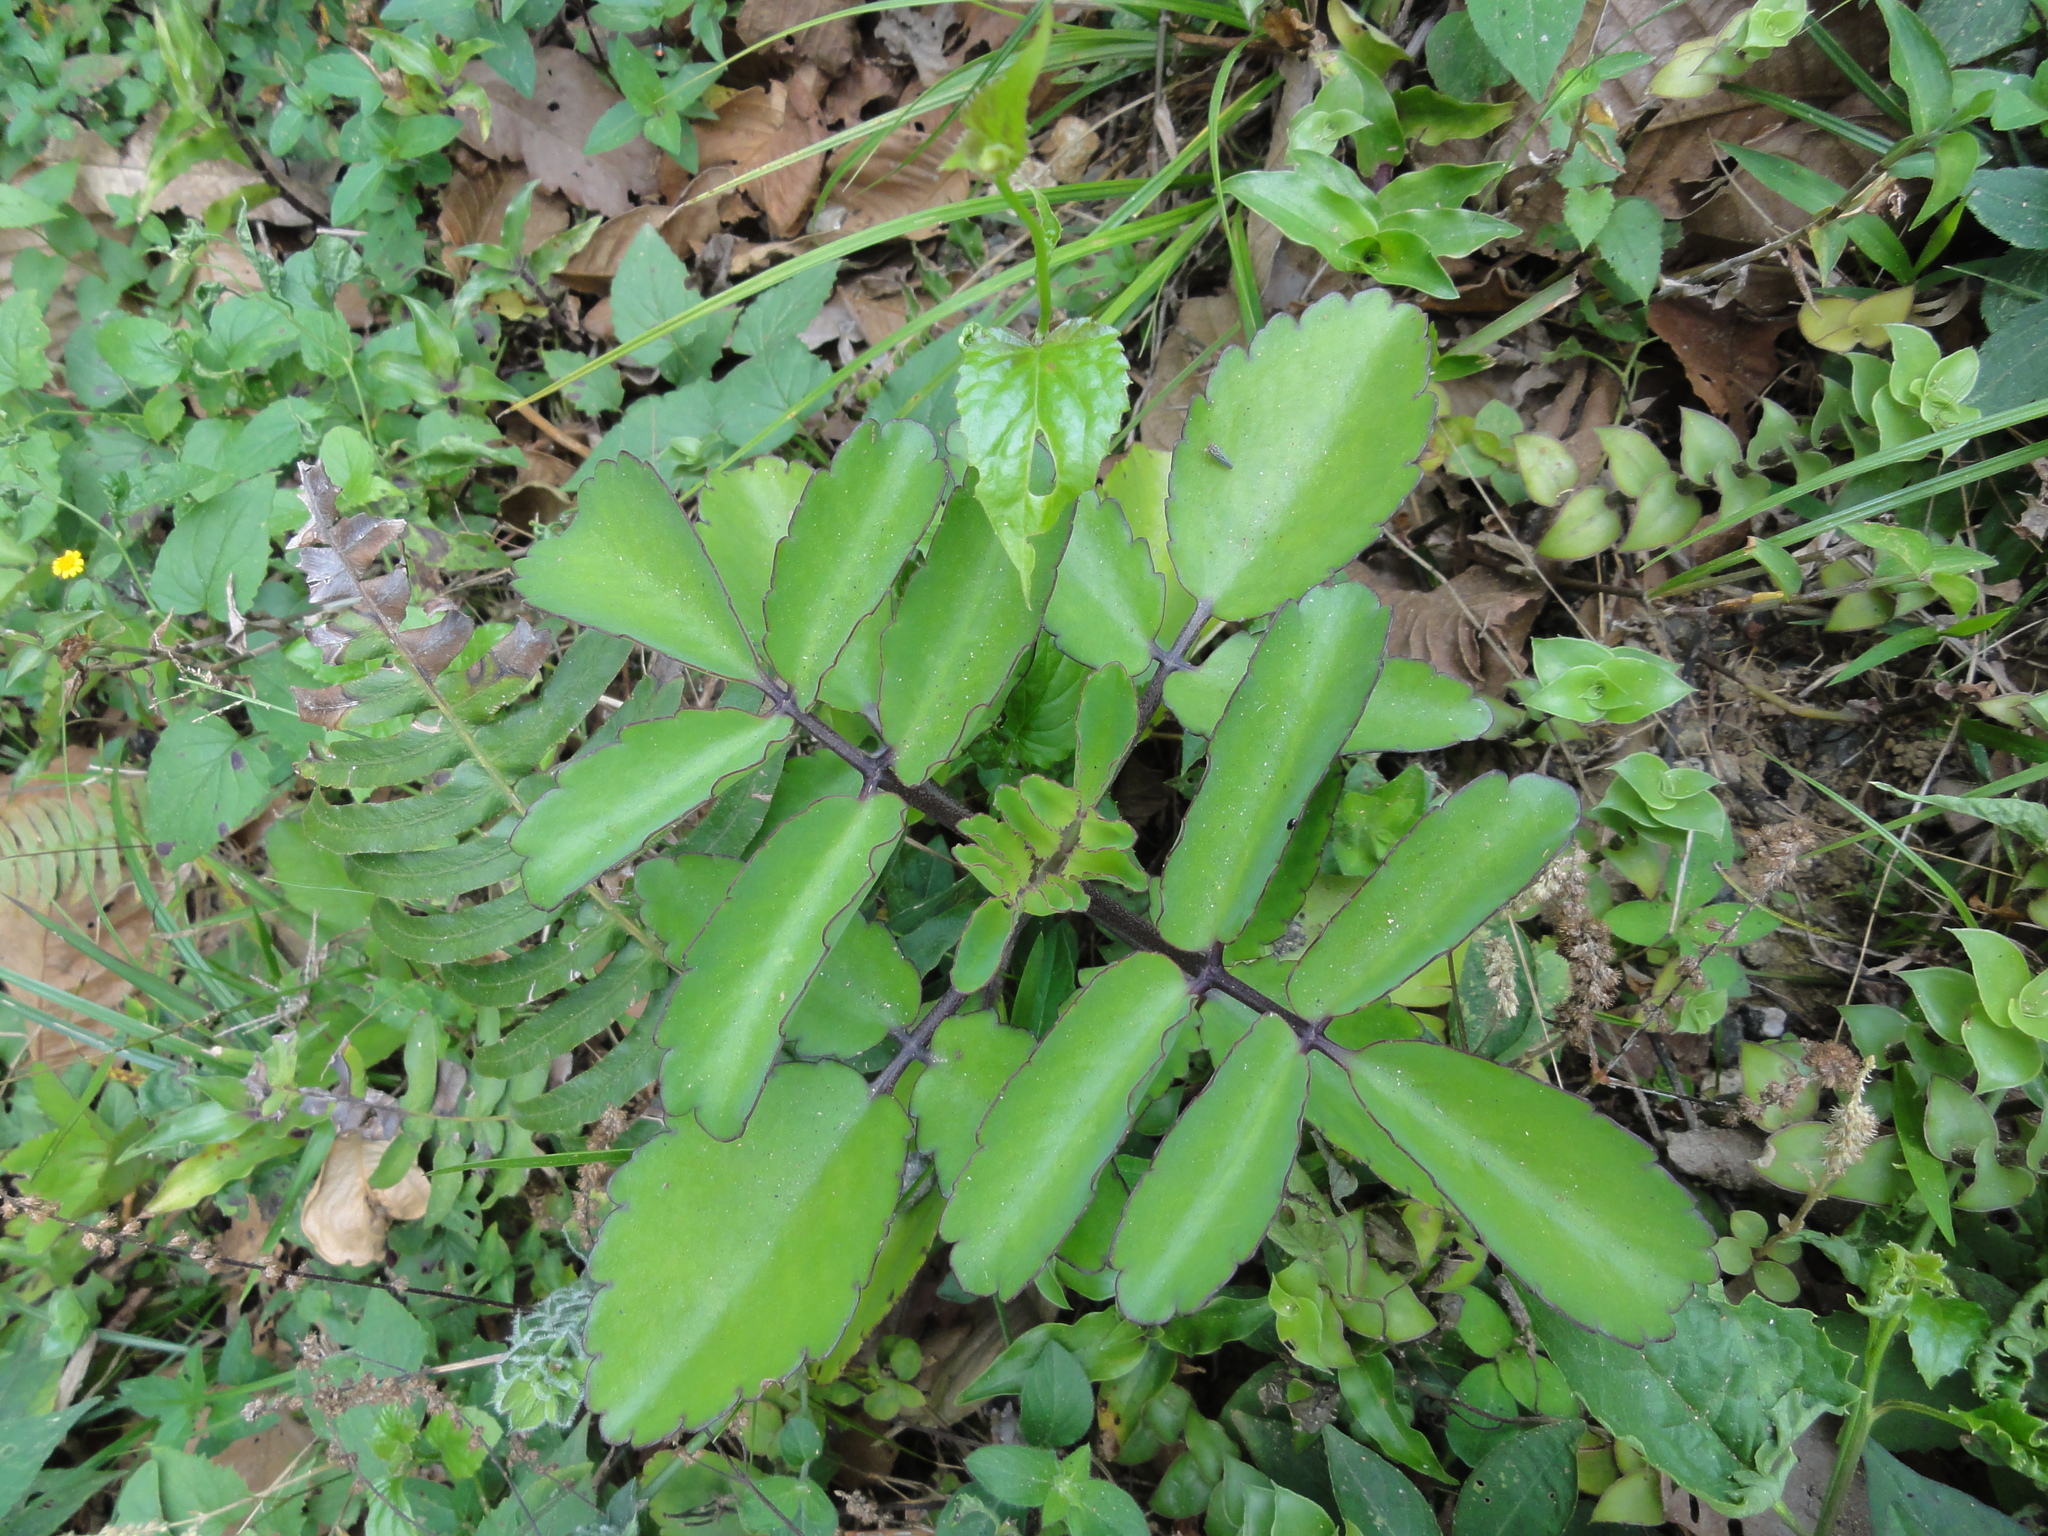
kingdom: Plantae
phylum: Tracheophyta
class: Magnoliopsida
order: Saxifragales
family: Crassulaceae
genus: Kalanchoe
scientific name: Kalanchoe pinnata
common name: Cathedral bells
